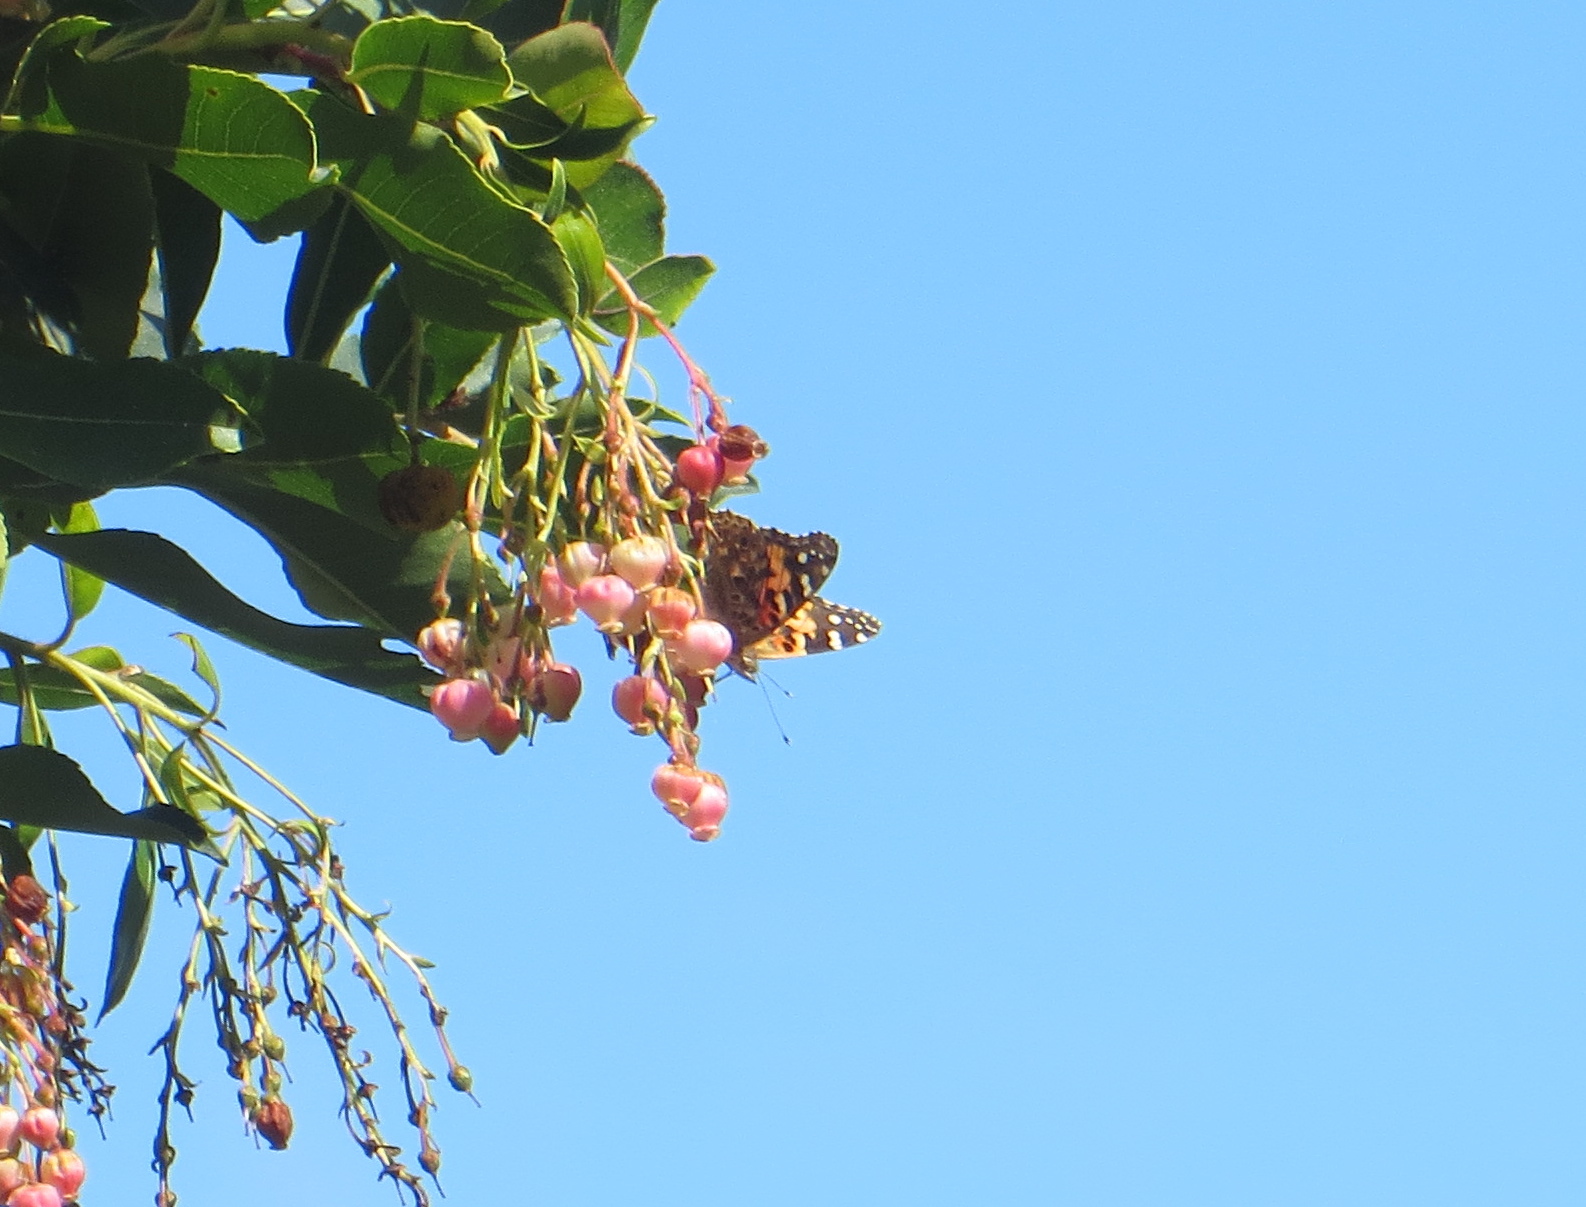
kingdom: Animalia
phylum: Arthropoda
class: Insecta
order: Lepidoptera
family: Nymphalidae
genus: Vanessa
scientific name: Vanessa cardui
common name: Painted lady
